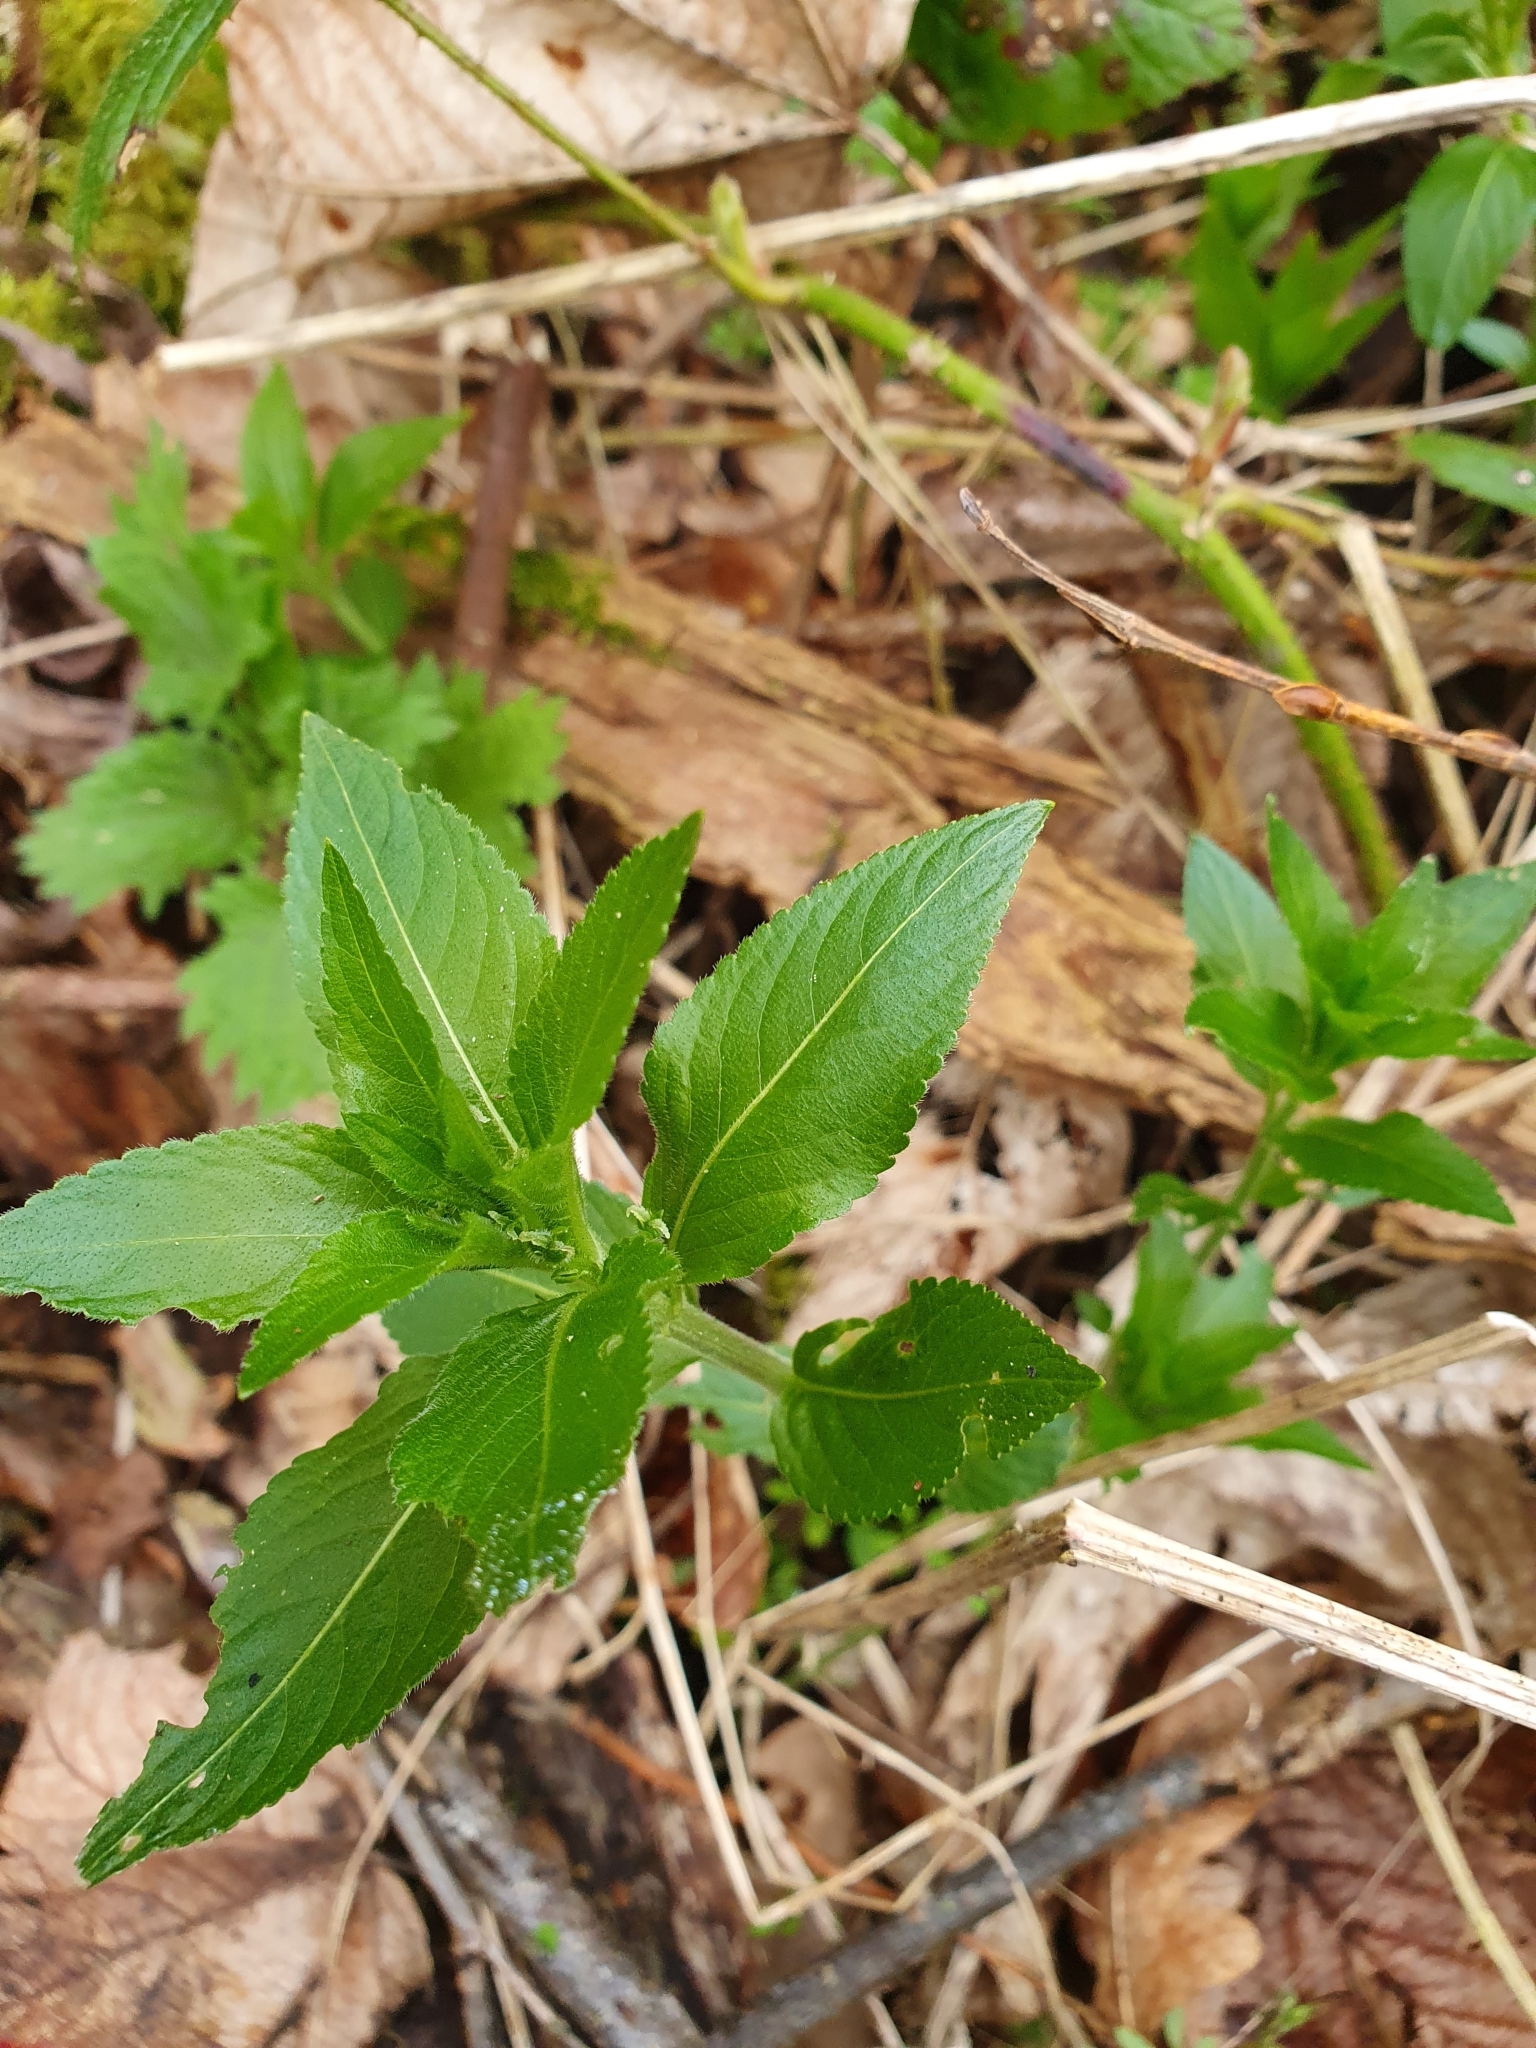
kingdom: Plantae
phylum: Tracheophyta
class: Magnoliopsida
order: Malpighiales
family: Euphorbiaceae
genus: Mercurialis
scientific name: Mercurialis perennis
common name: Dog mercury
